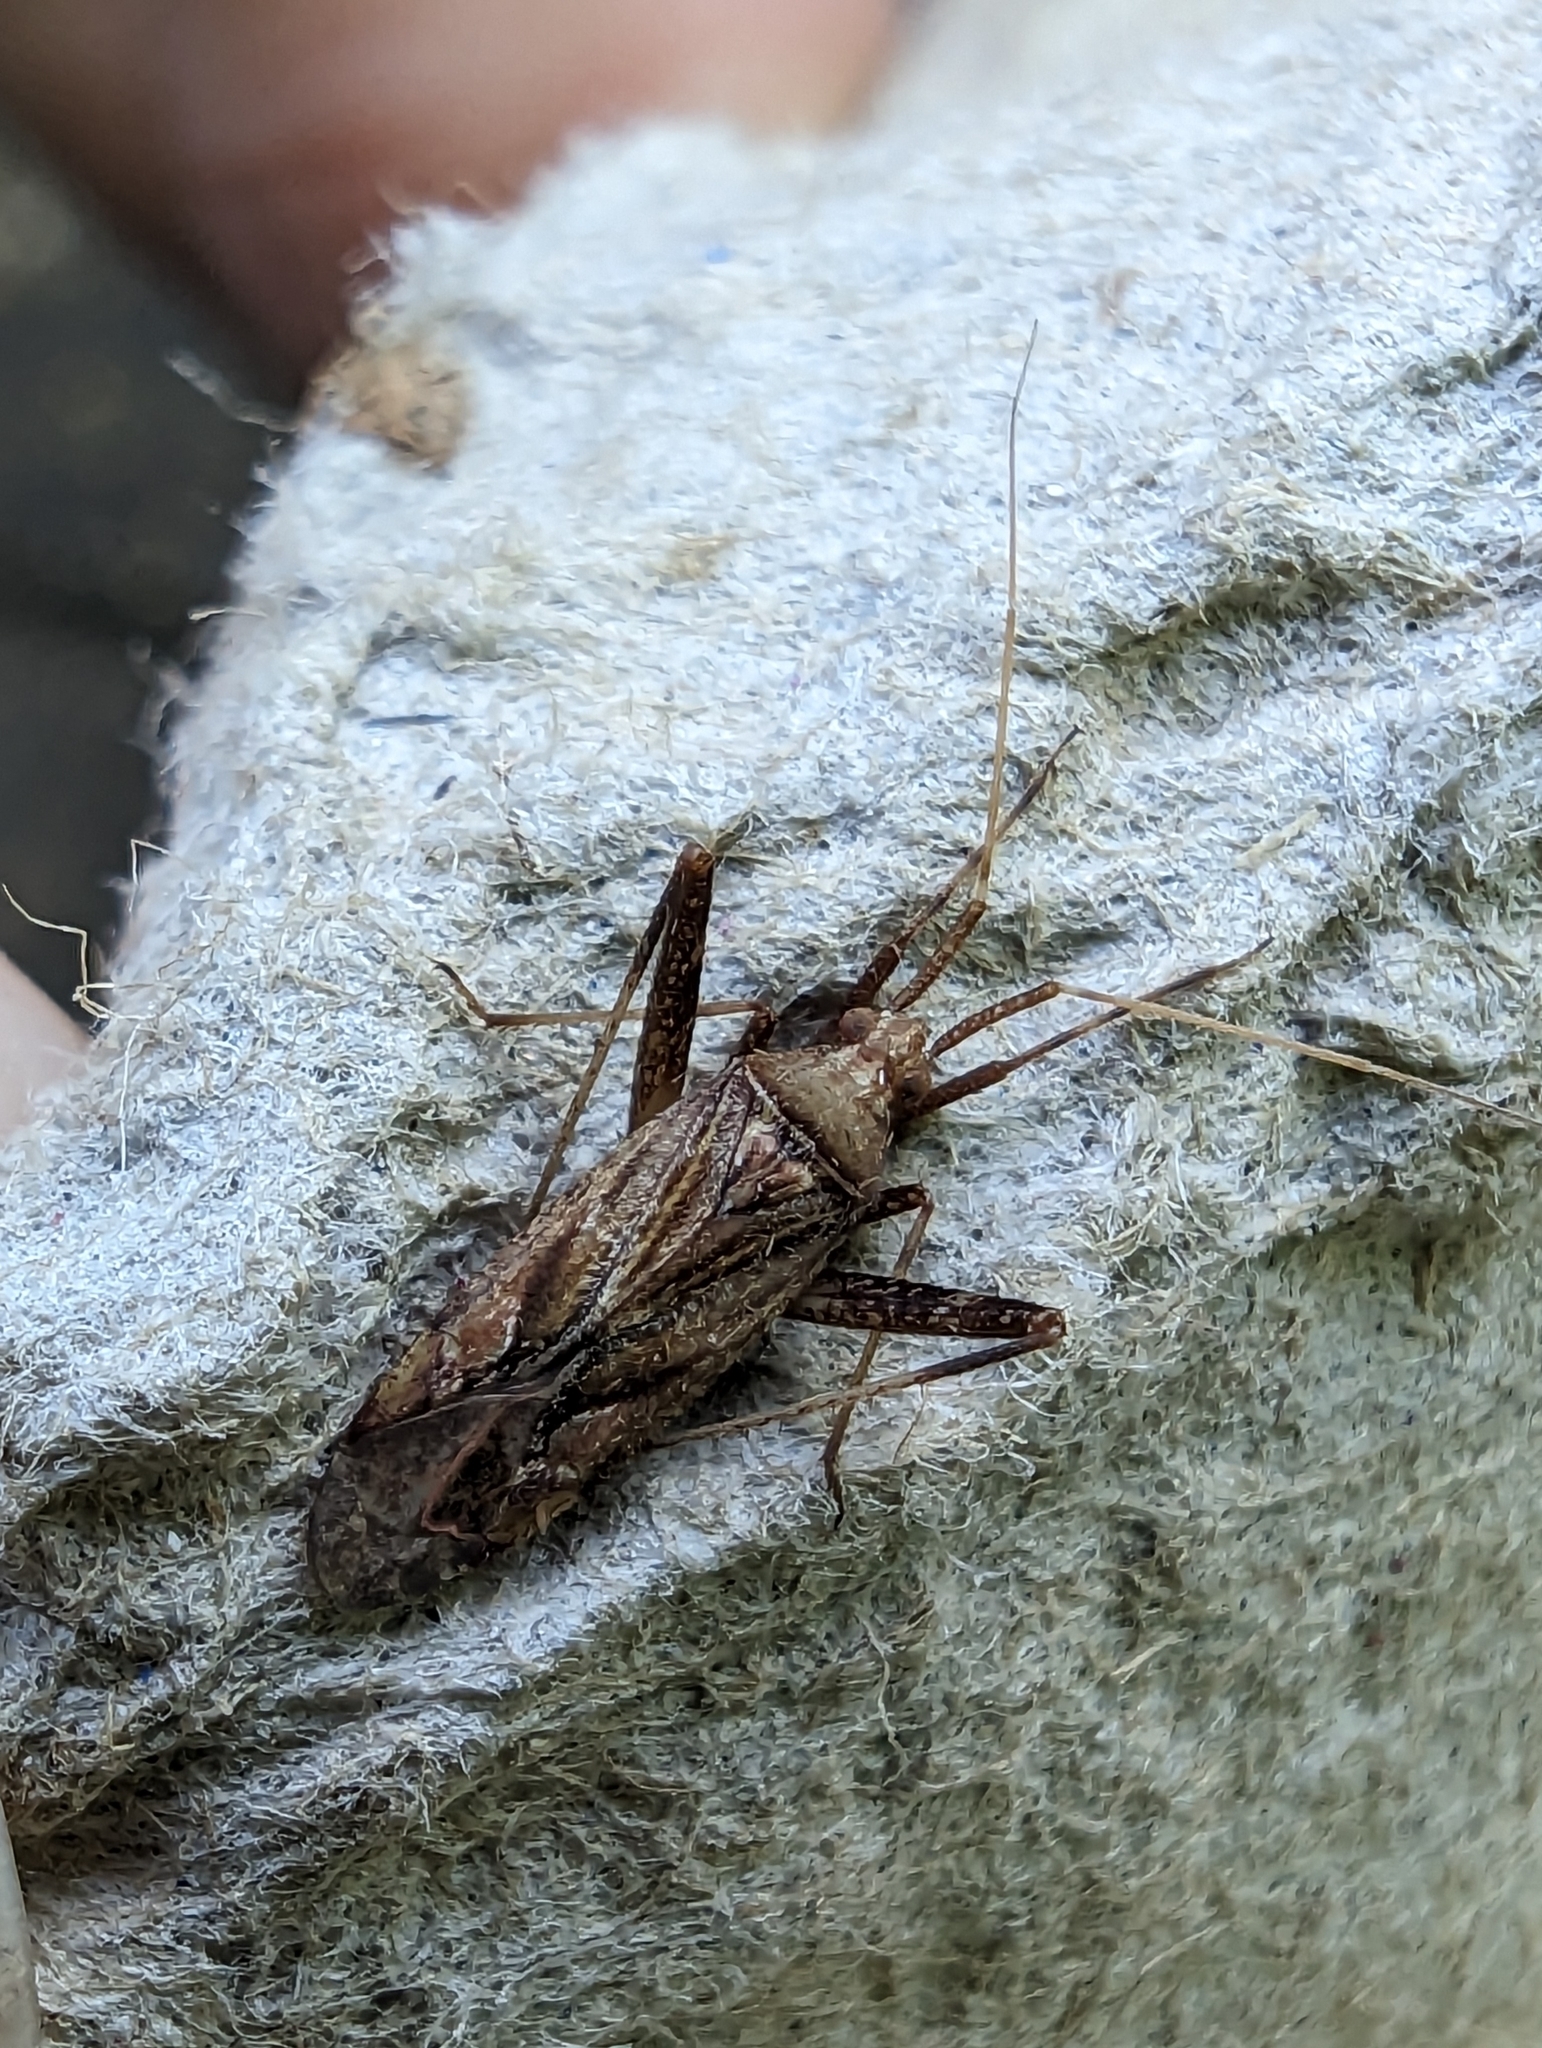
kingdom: Animalia
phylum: Arthropoda
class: Insecta
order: Hemiptera
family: Miridae
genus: Phytocoris
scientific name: Phytocoris varipes
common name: Plant bug
